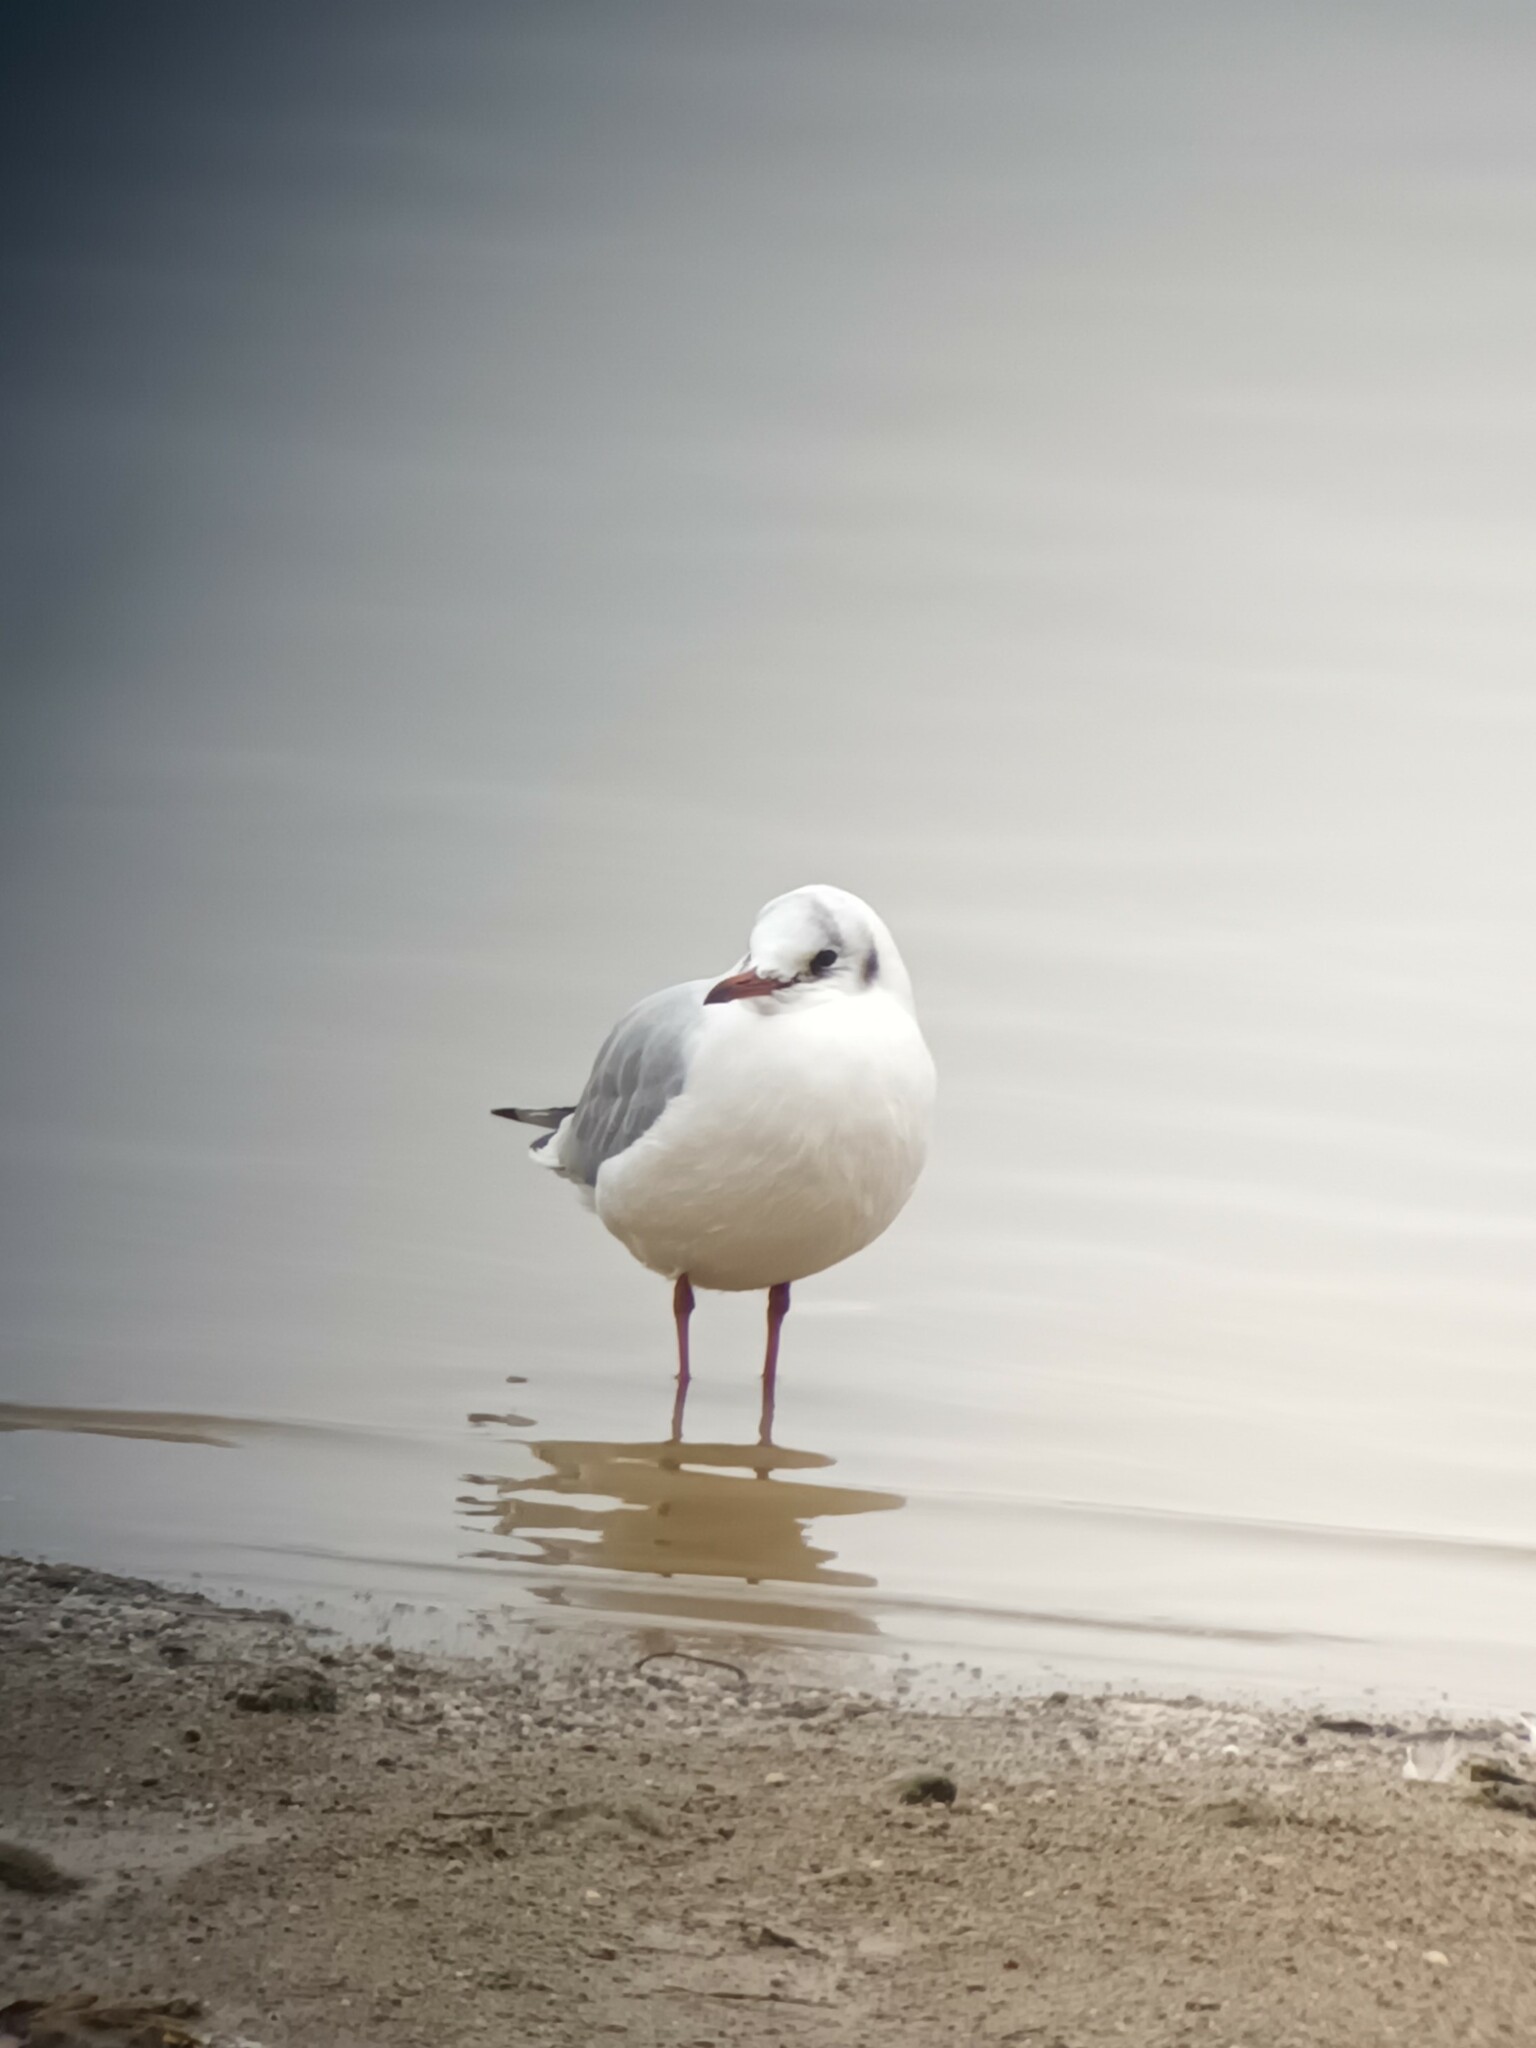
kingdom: Animalia
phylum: Chordata
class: Aves
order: Charadriiformes
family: Laridae
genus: Chroicocephalus
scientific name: Chroicocephalus ridibundus
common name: Black-headed gull
